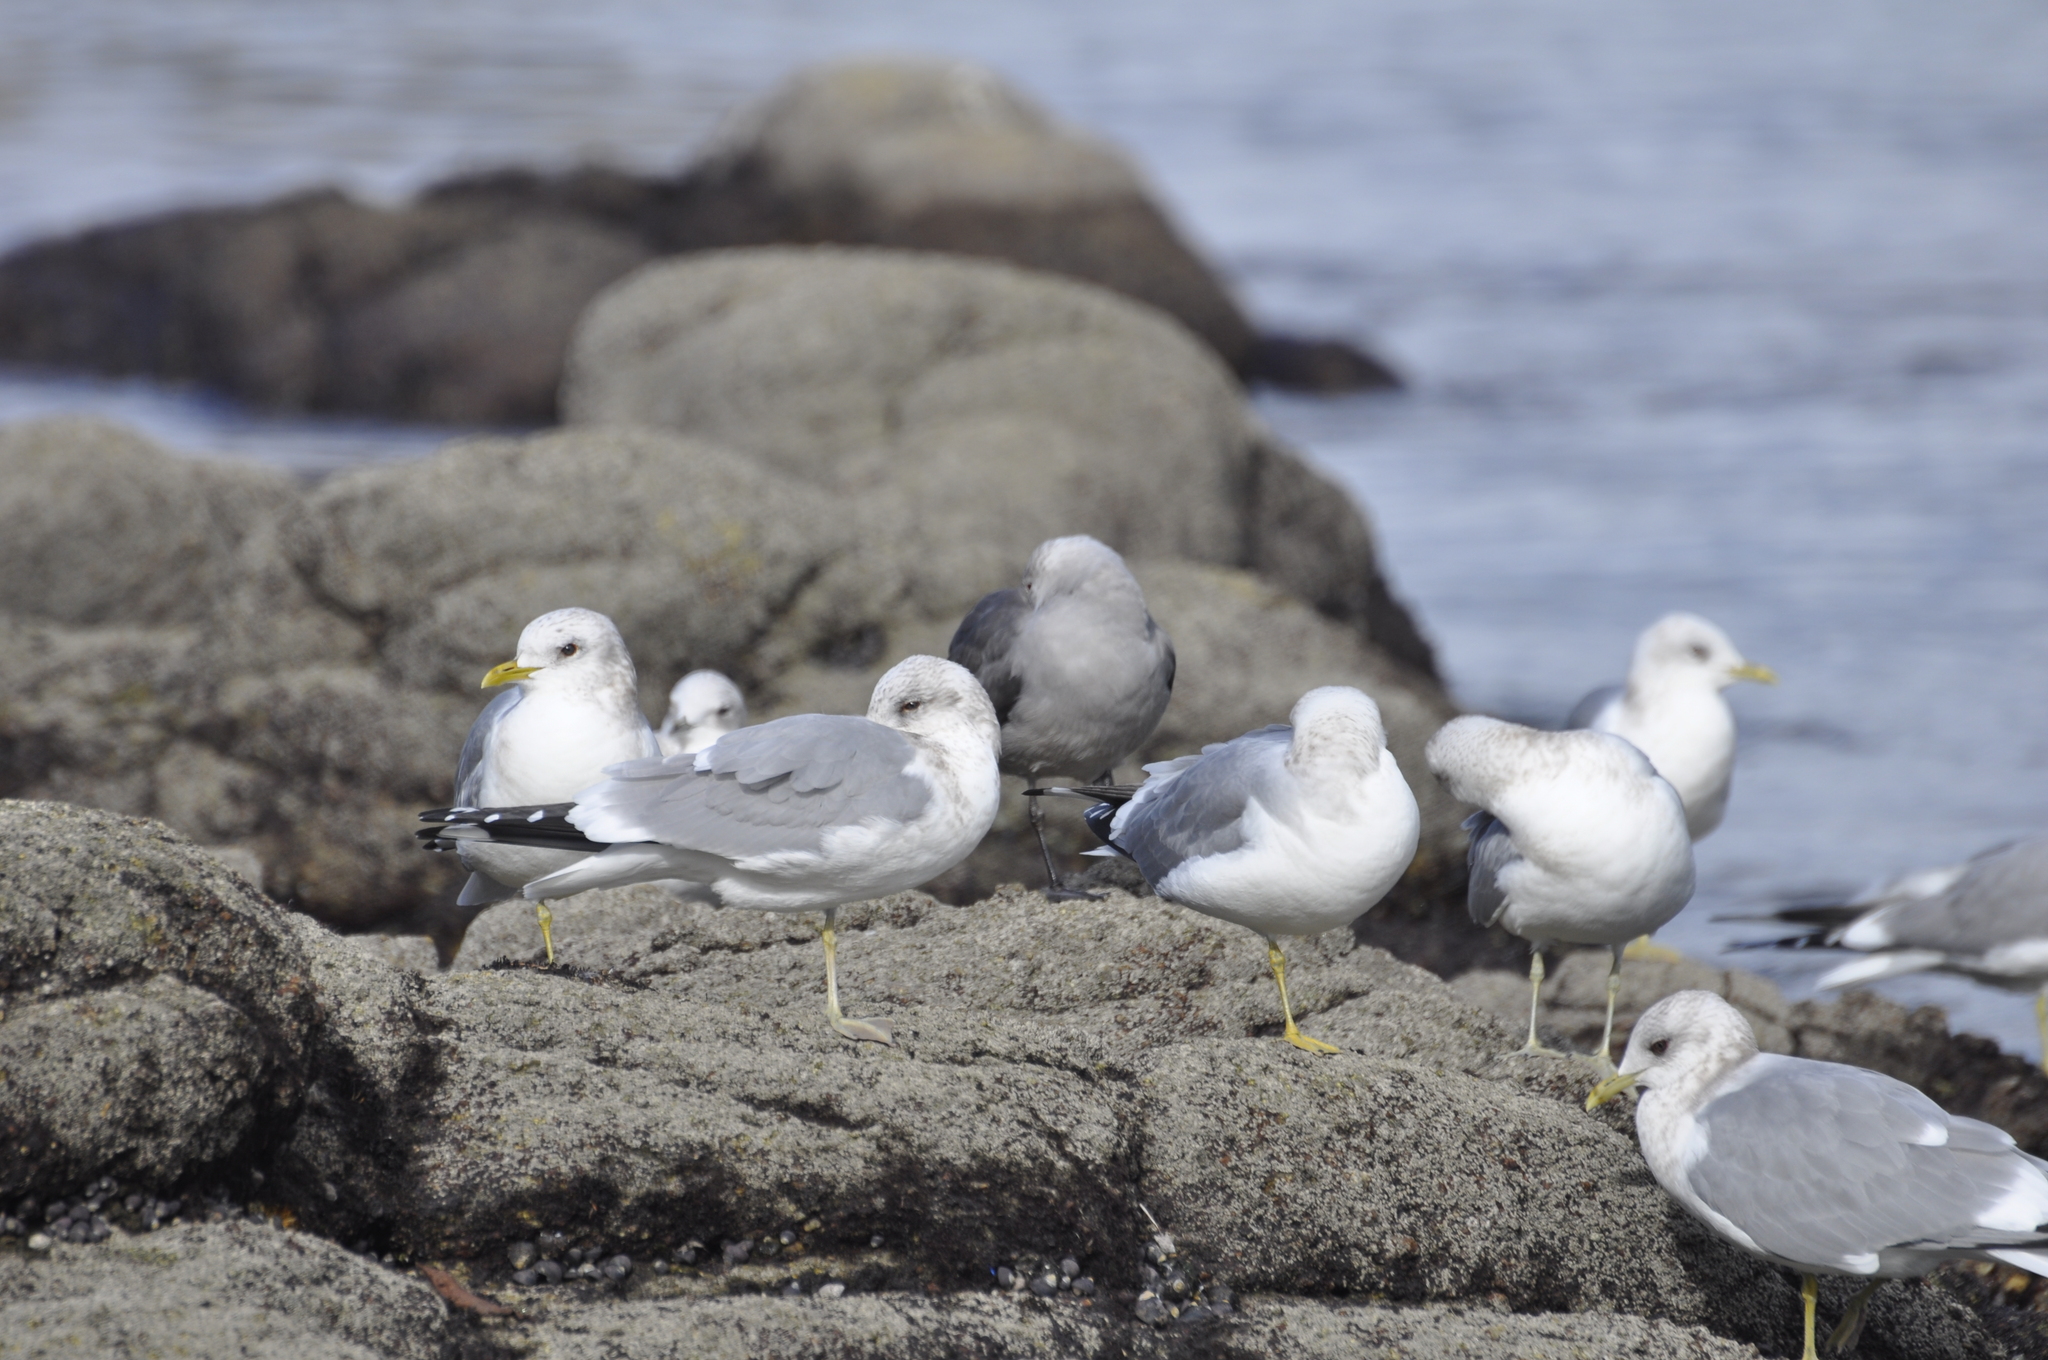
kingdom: Animalia
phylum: Chordata
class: Aves
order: Charadriiformes
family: Laridae
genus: Larus
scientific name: Larus heermanni
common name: Heermann's gull
